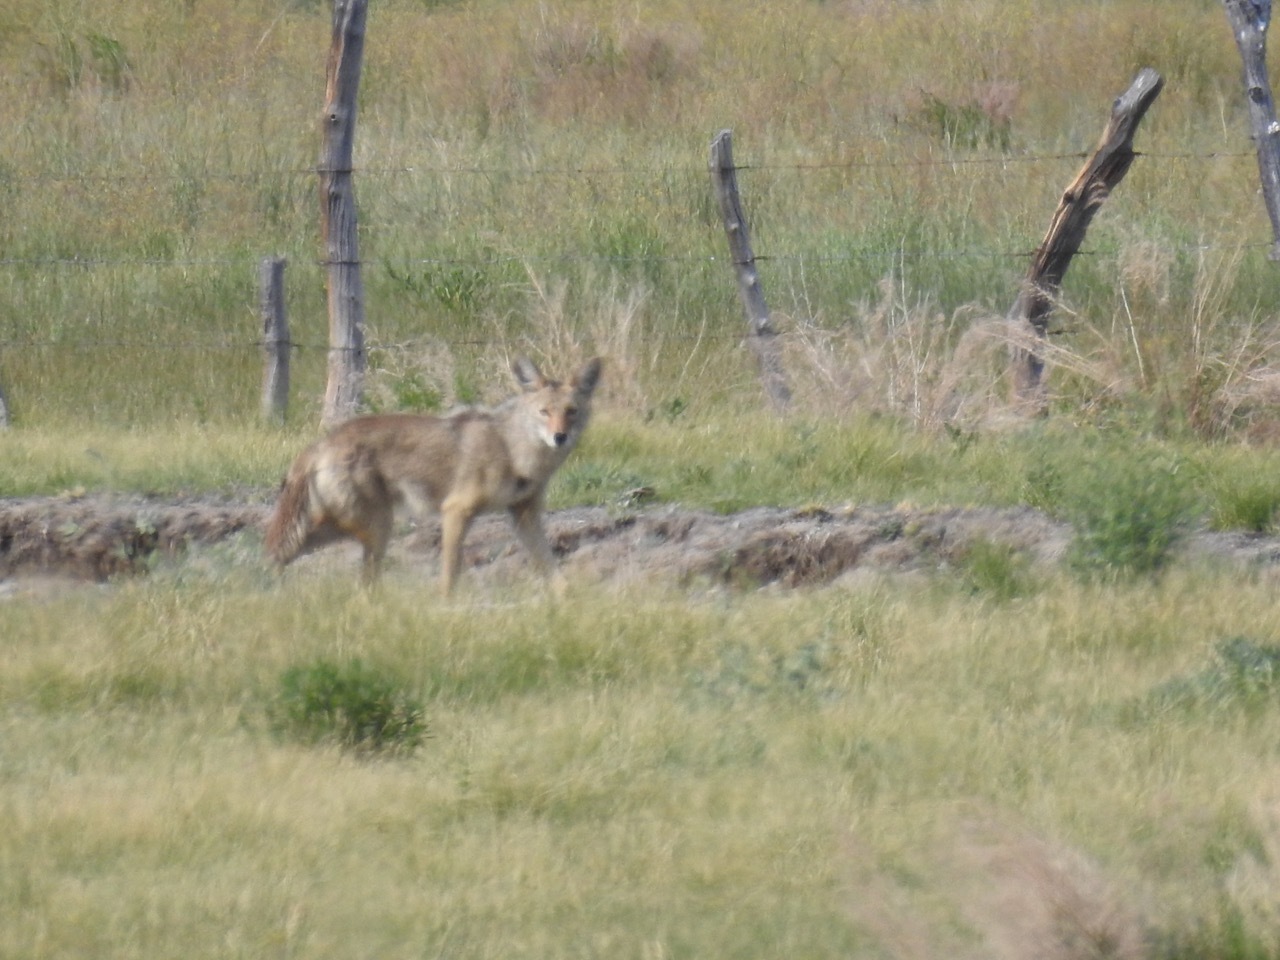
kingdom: Animalia
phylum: Chordata
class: Mammalia
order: Carnivora
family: Canidae
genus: Canis
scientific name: Canis latrans
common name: Coyote
